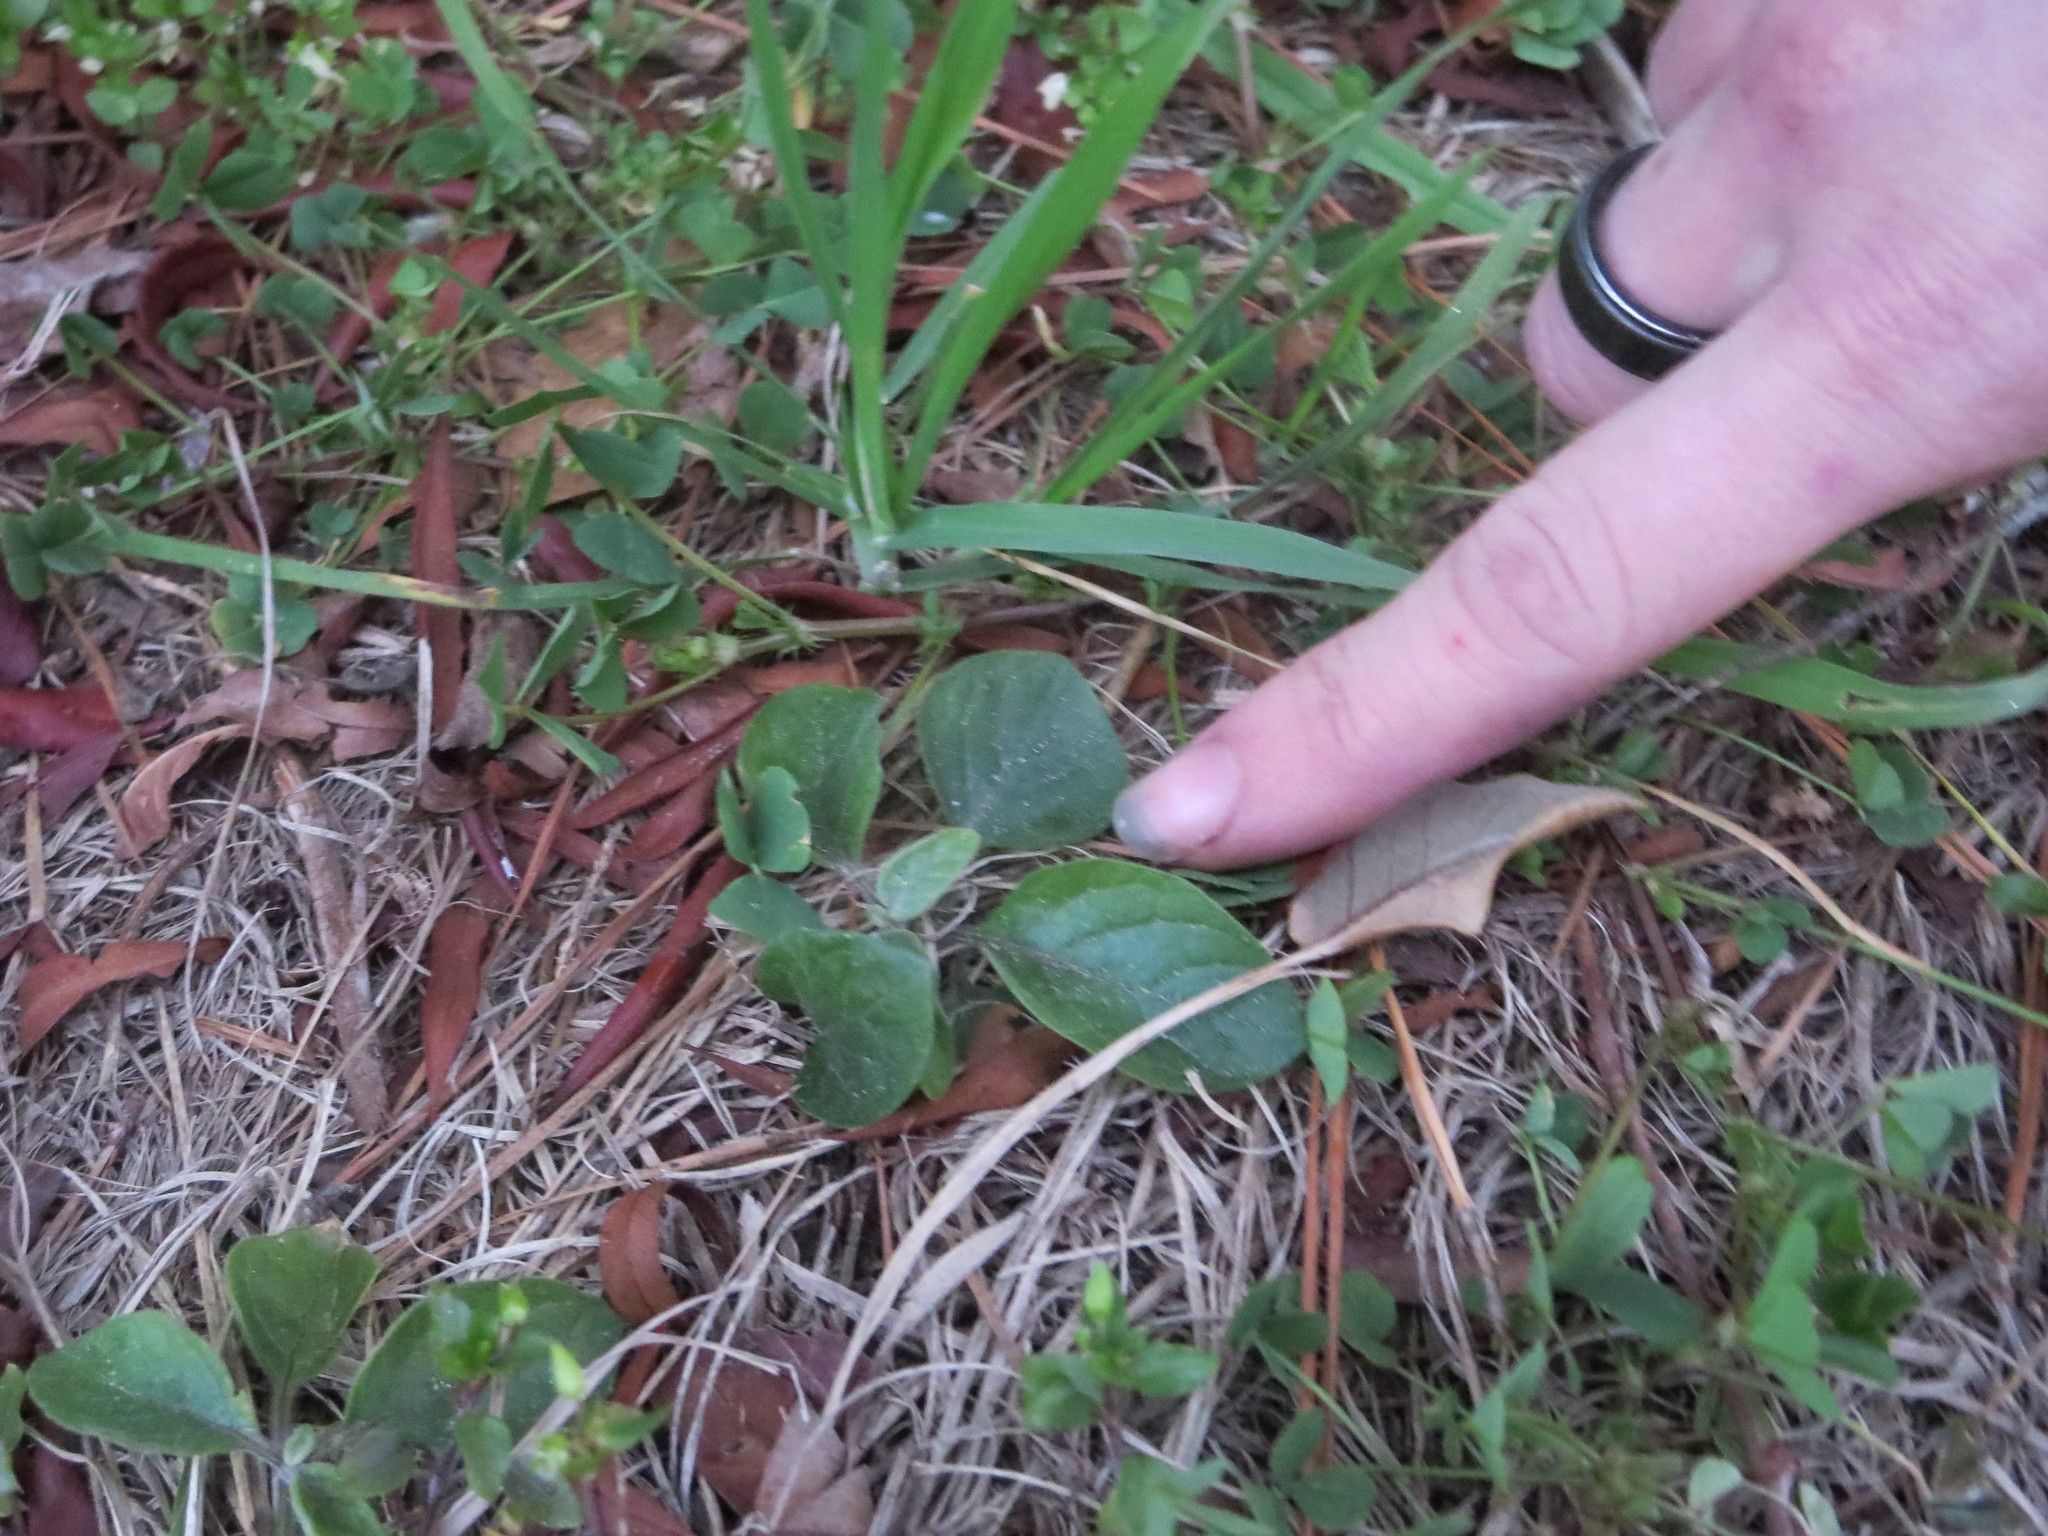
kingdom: Plantae
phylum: Tracheophyta
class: Magnoliopsida
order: Solanales
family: Solanaceae
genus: Physalis
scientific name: Physalis walteri
